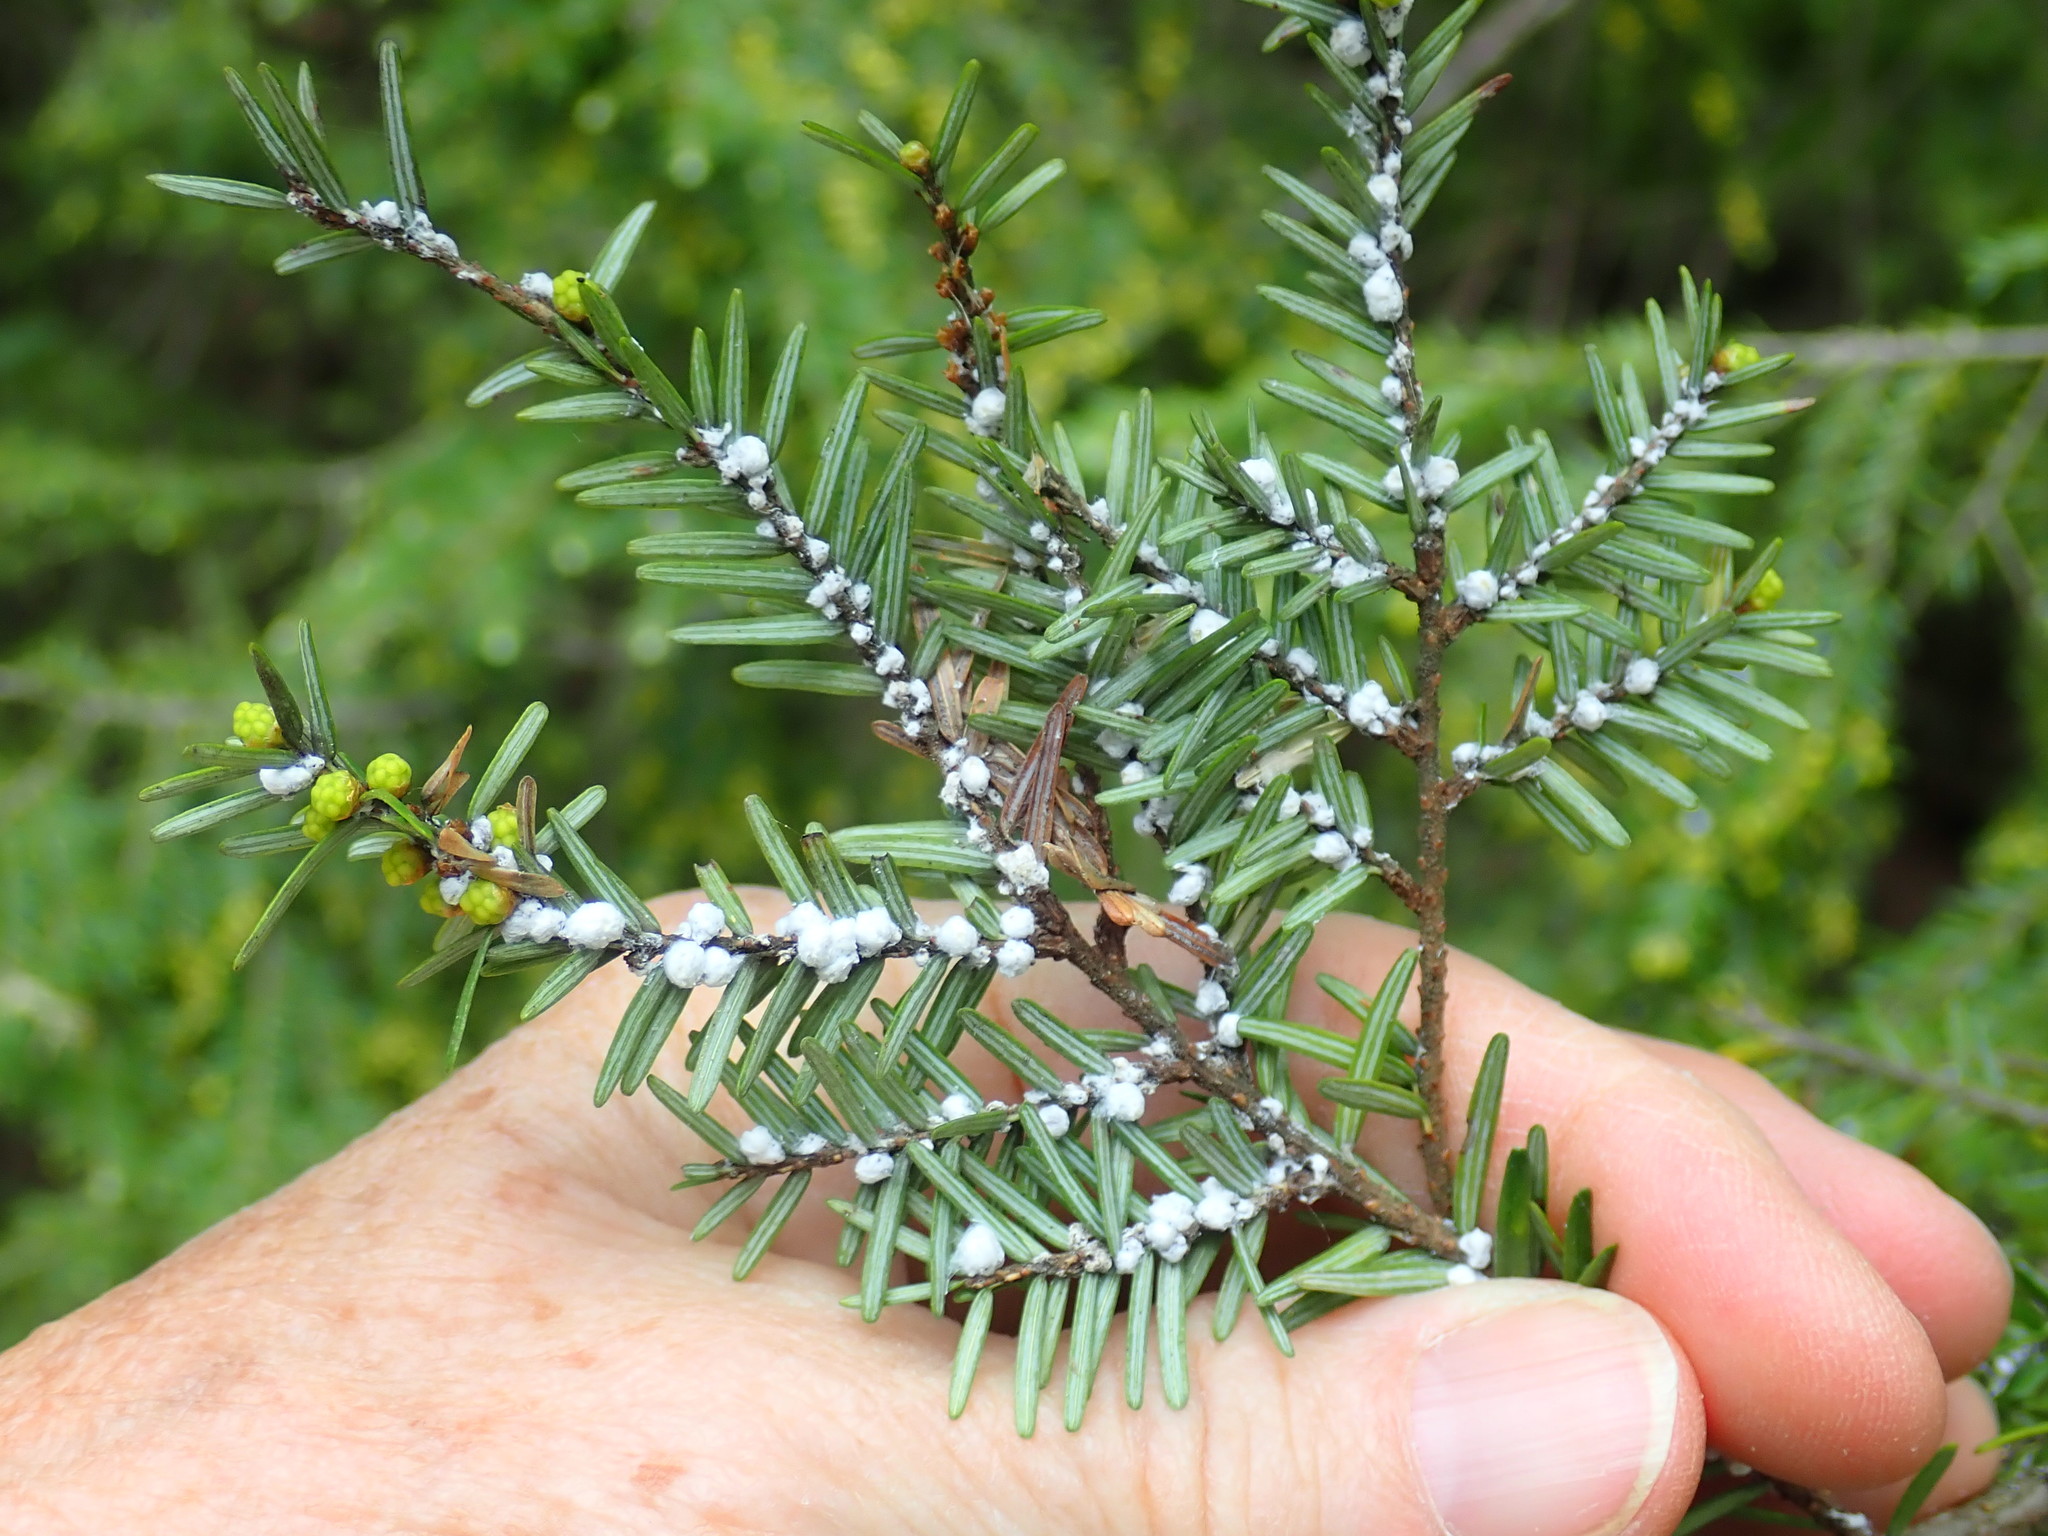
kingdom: Animalia
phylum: Arthropoda
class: Insecta
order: Hemiptera
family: Adelgidae
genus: Adelges
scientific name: Adelges tsugae
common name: Hemlock woolly adelgid
